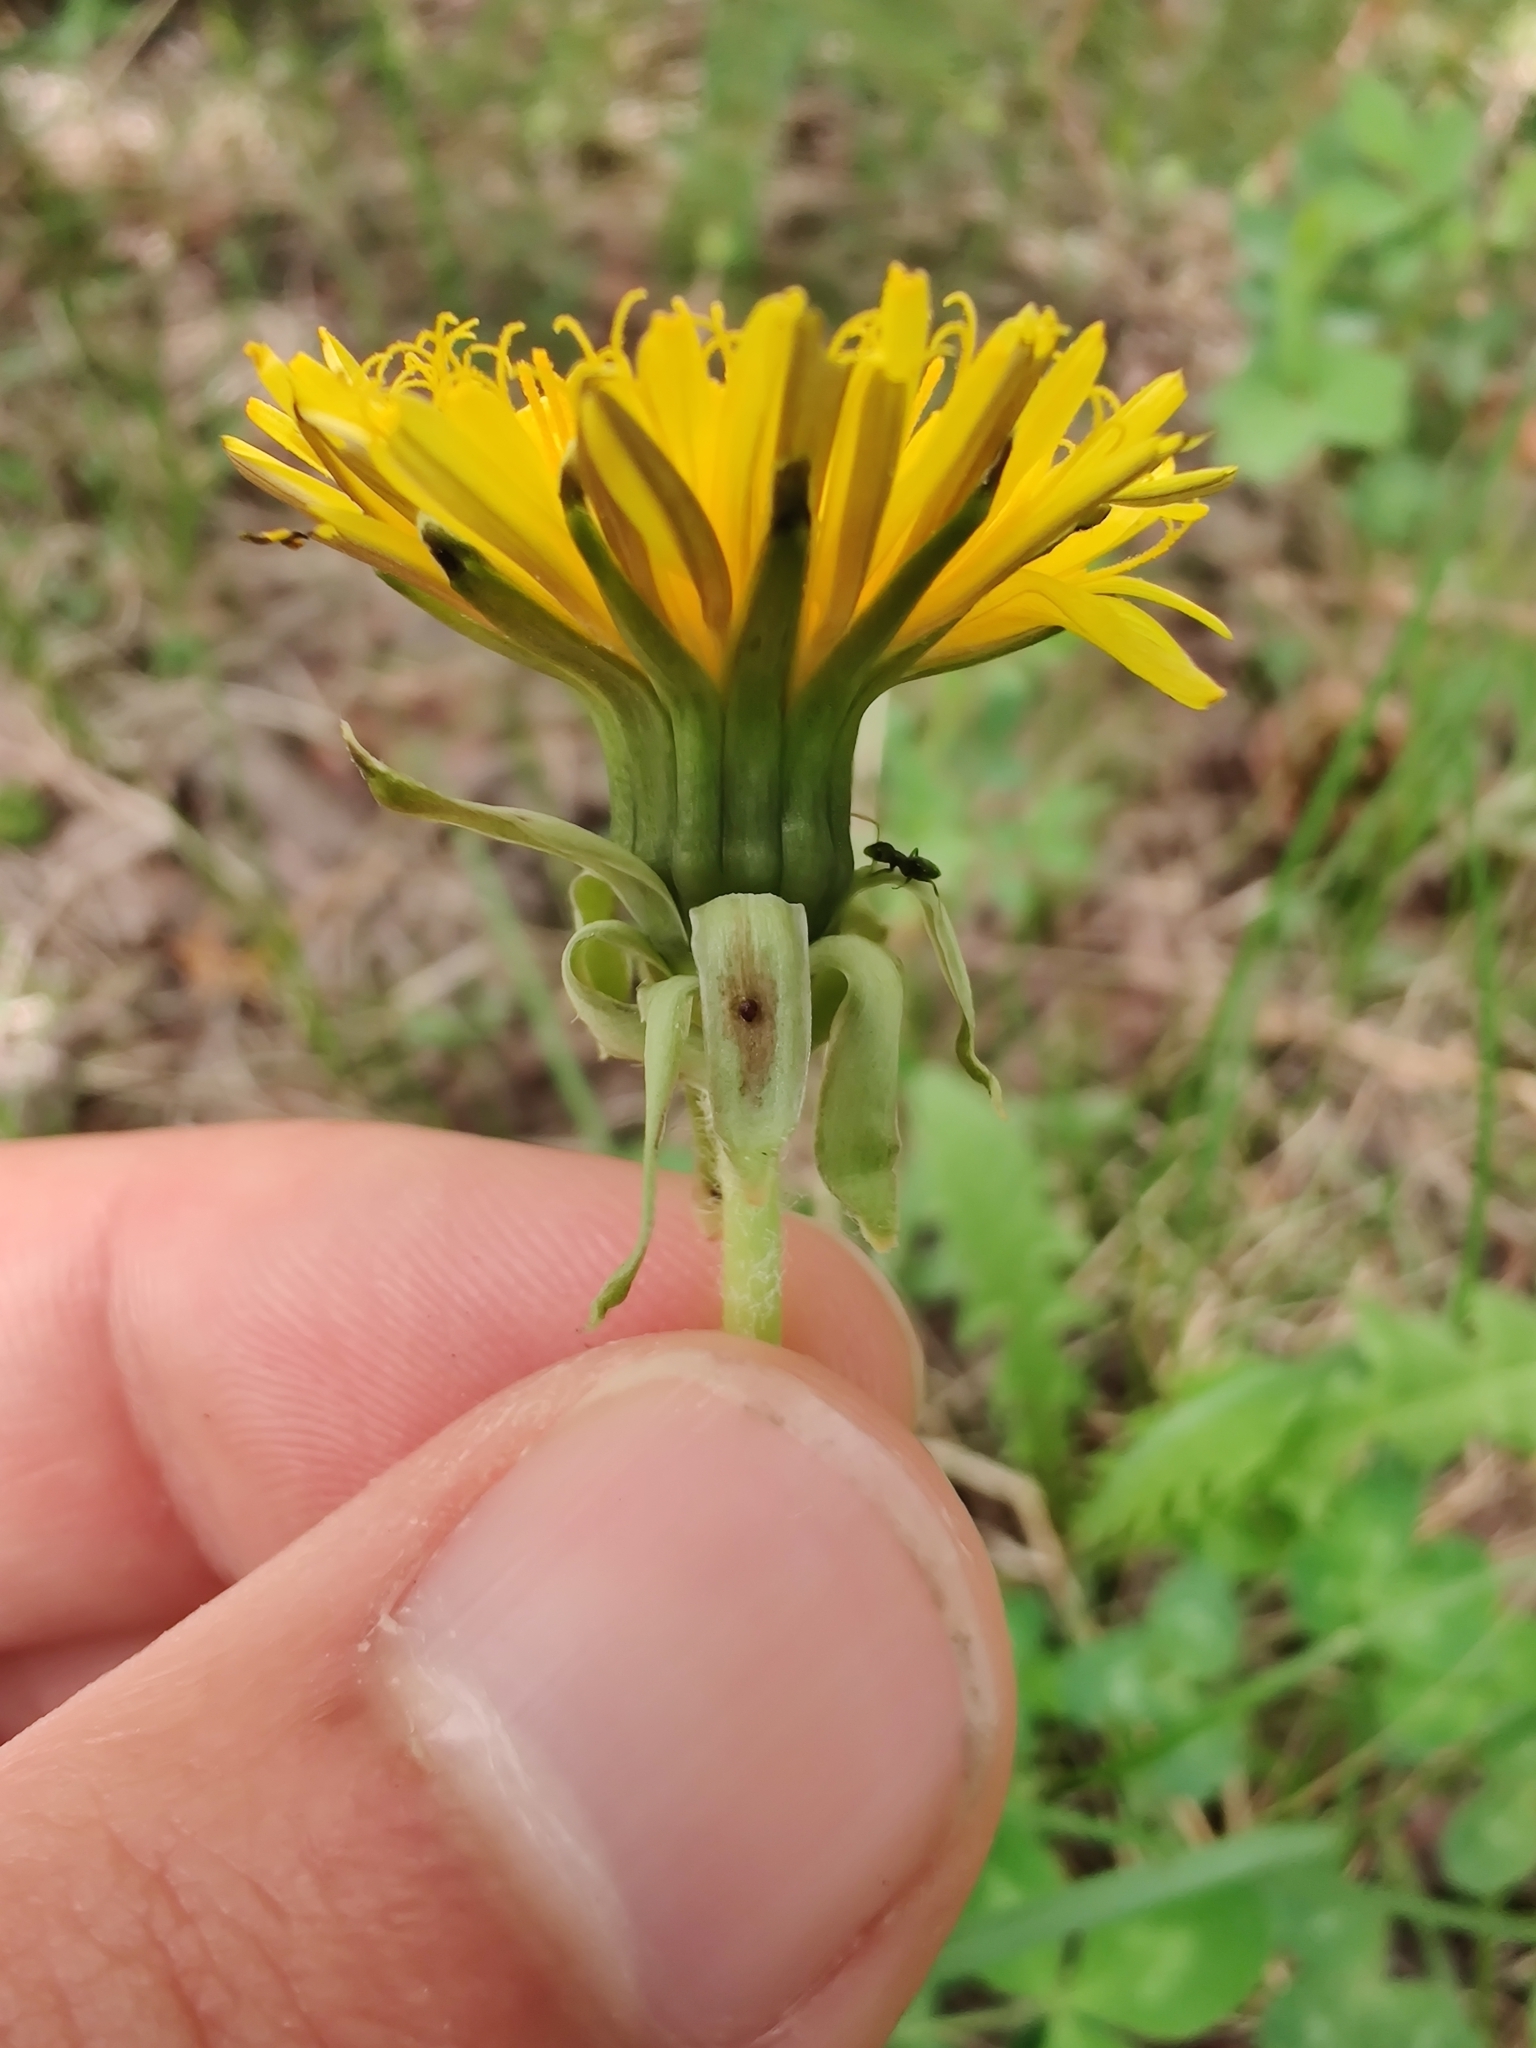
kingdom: Plantae
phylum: Tracheophyta
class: Magnoliopsida
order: Asterales
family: Asteraceae
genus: Taraxacum
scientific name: Taraxacum officinale
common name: Common dandelion
